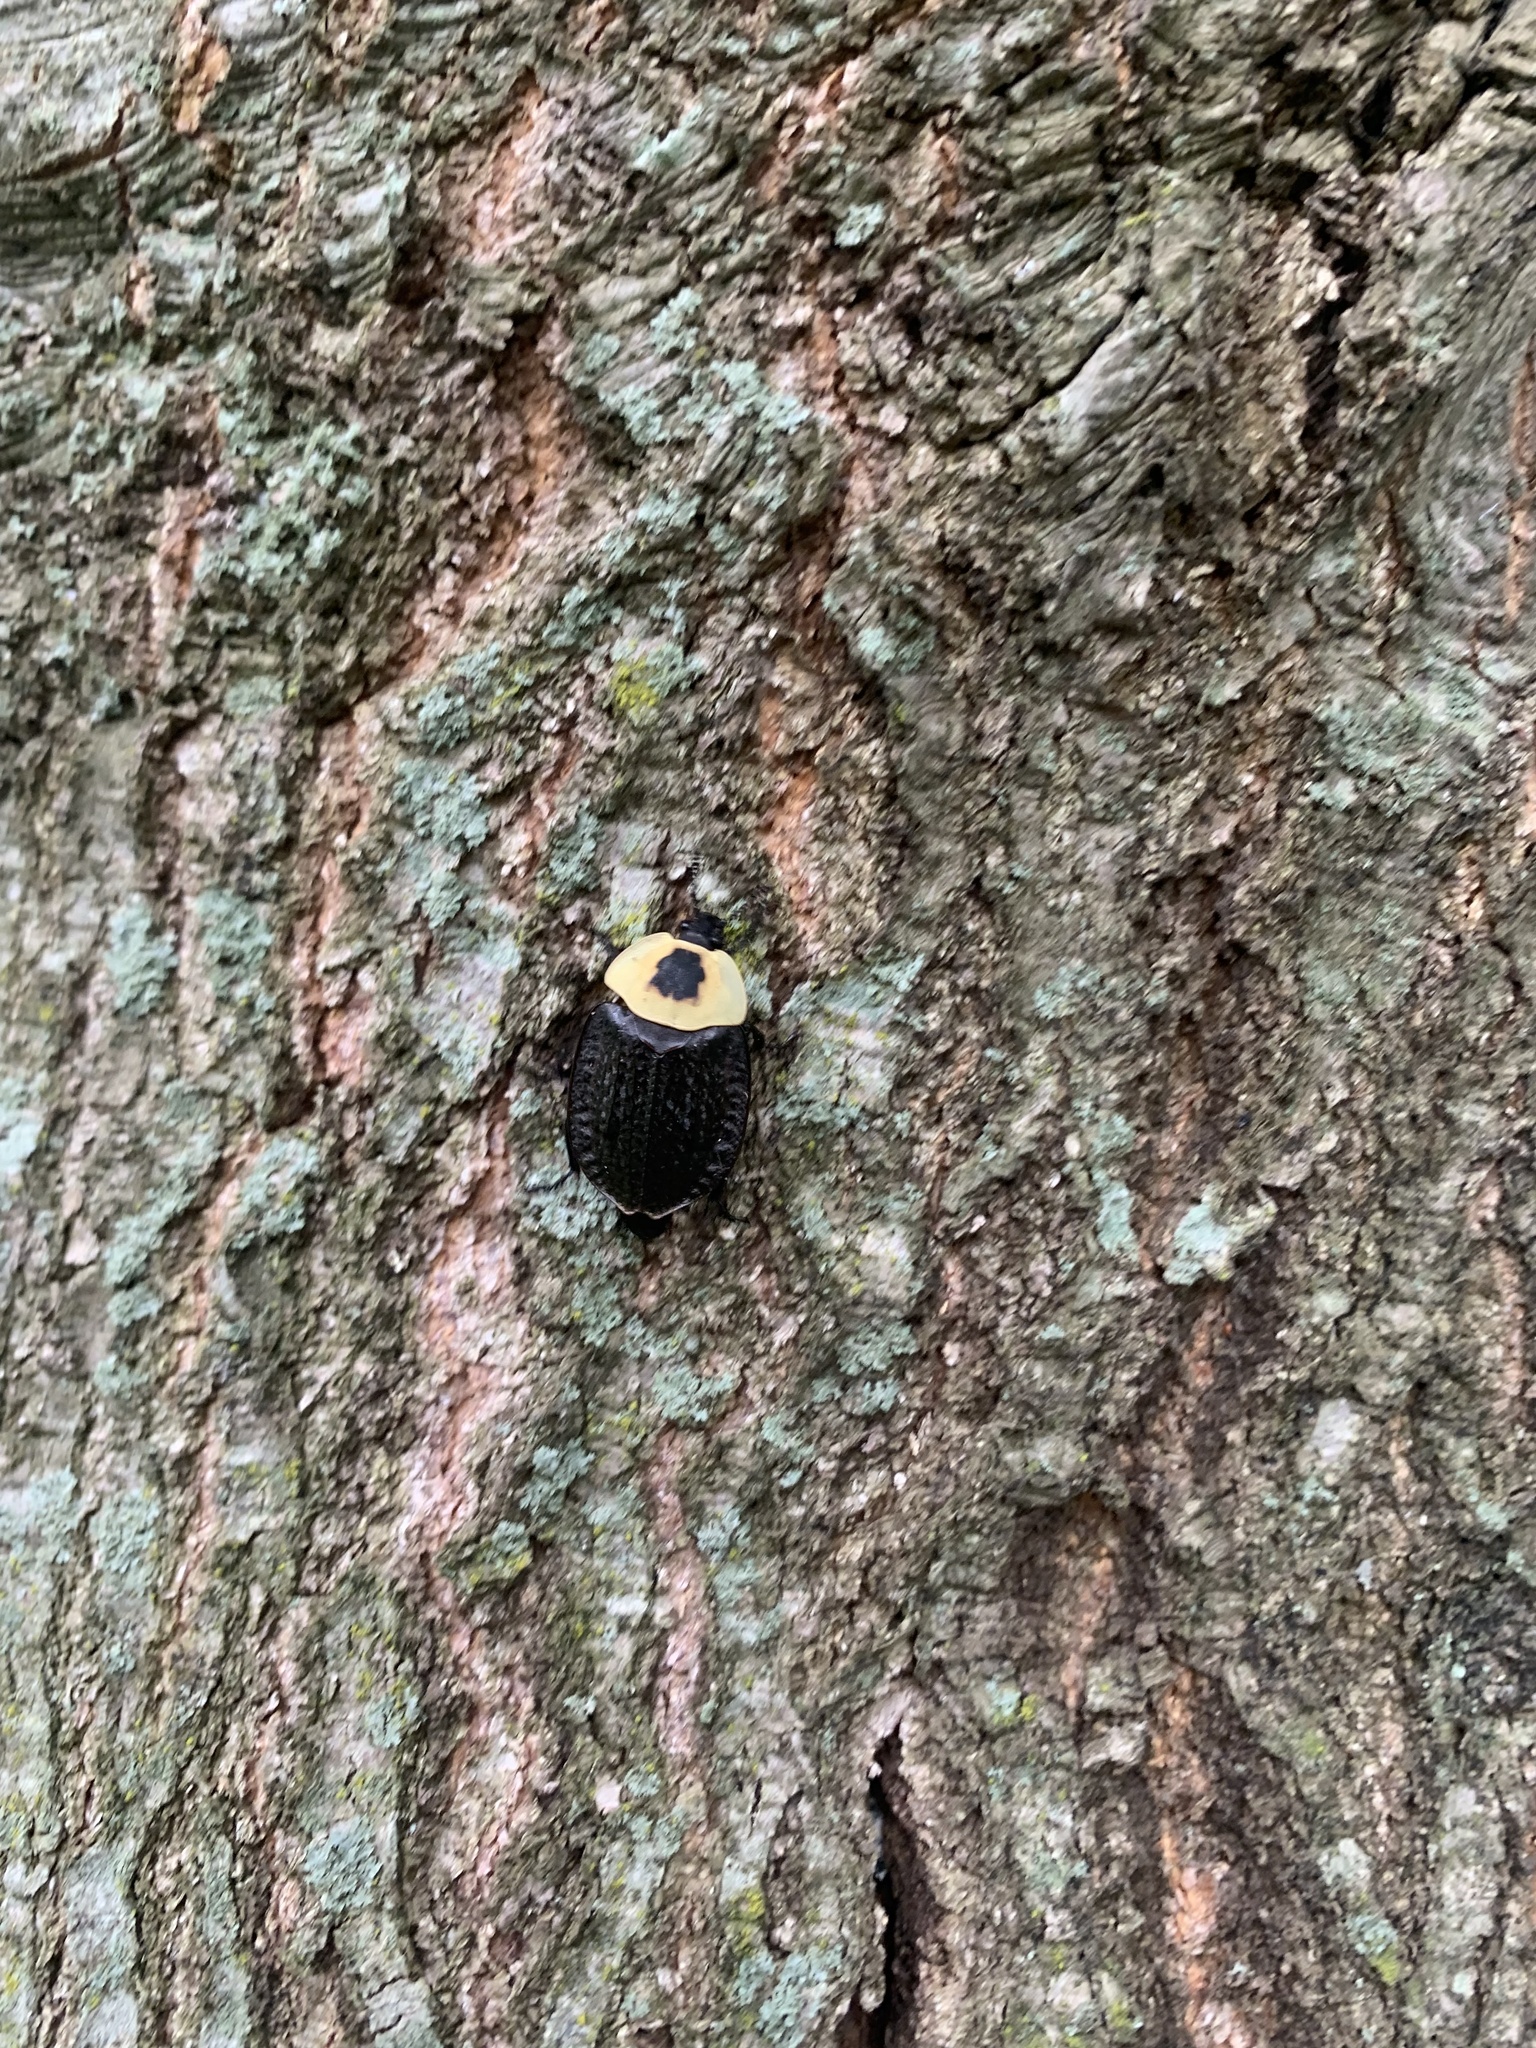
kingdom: Animalia
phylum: Arthropoda
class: Insecta
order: Coleoptera
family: Staphylinidae
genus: Necrophila
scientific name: Necrophila americana
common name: American carrion beetle
